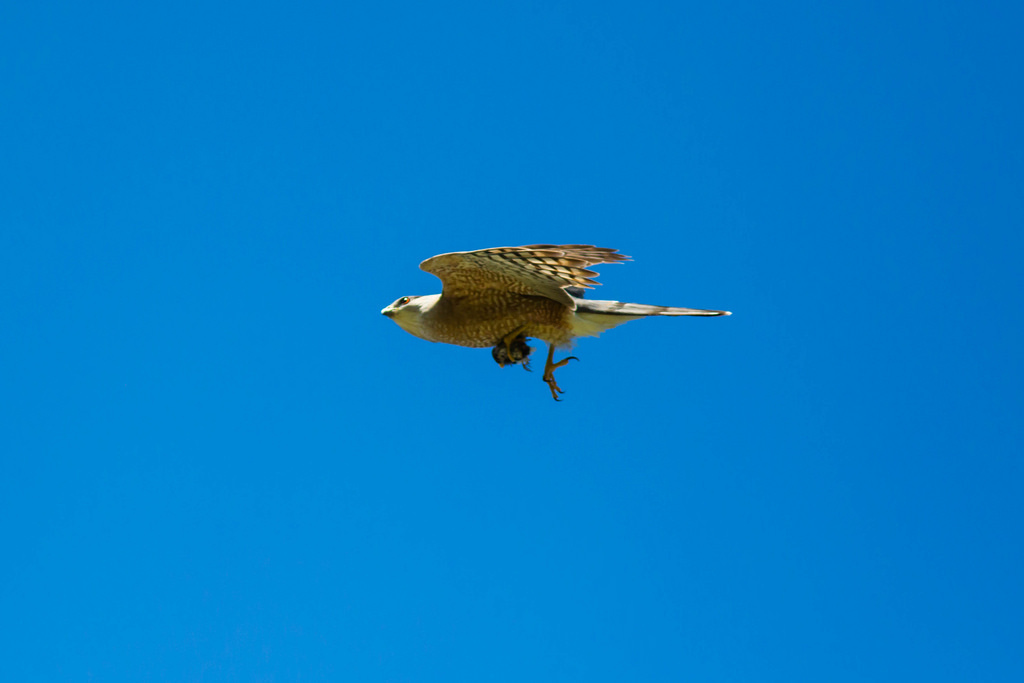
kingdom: Animalia
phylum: Chordata
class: Aves
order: Accipitriformes
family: Accipitridae
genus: Accipiter
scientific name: Accipiter cooperii
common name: Cooper's hawk
